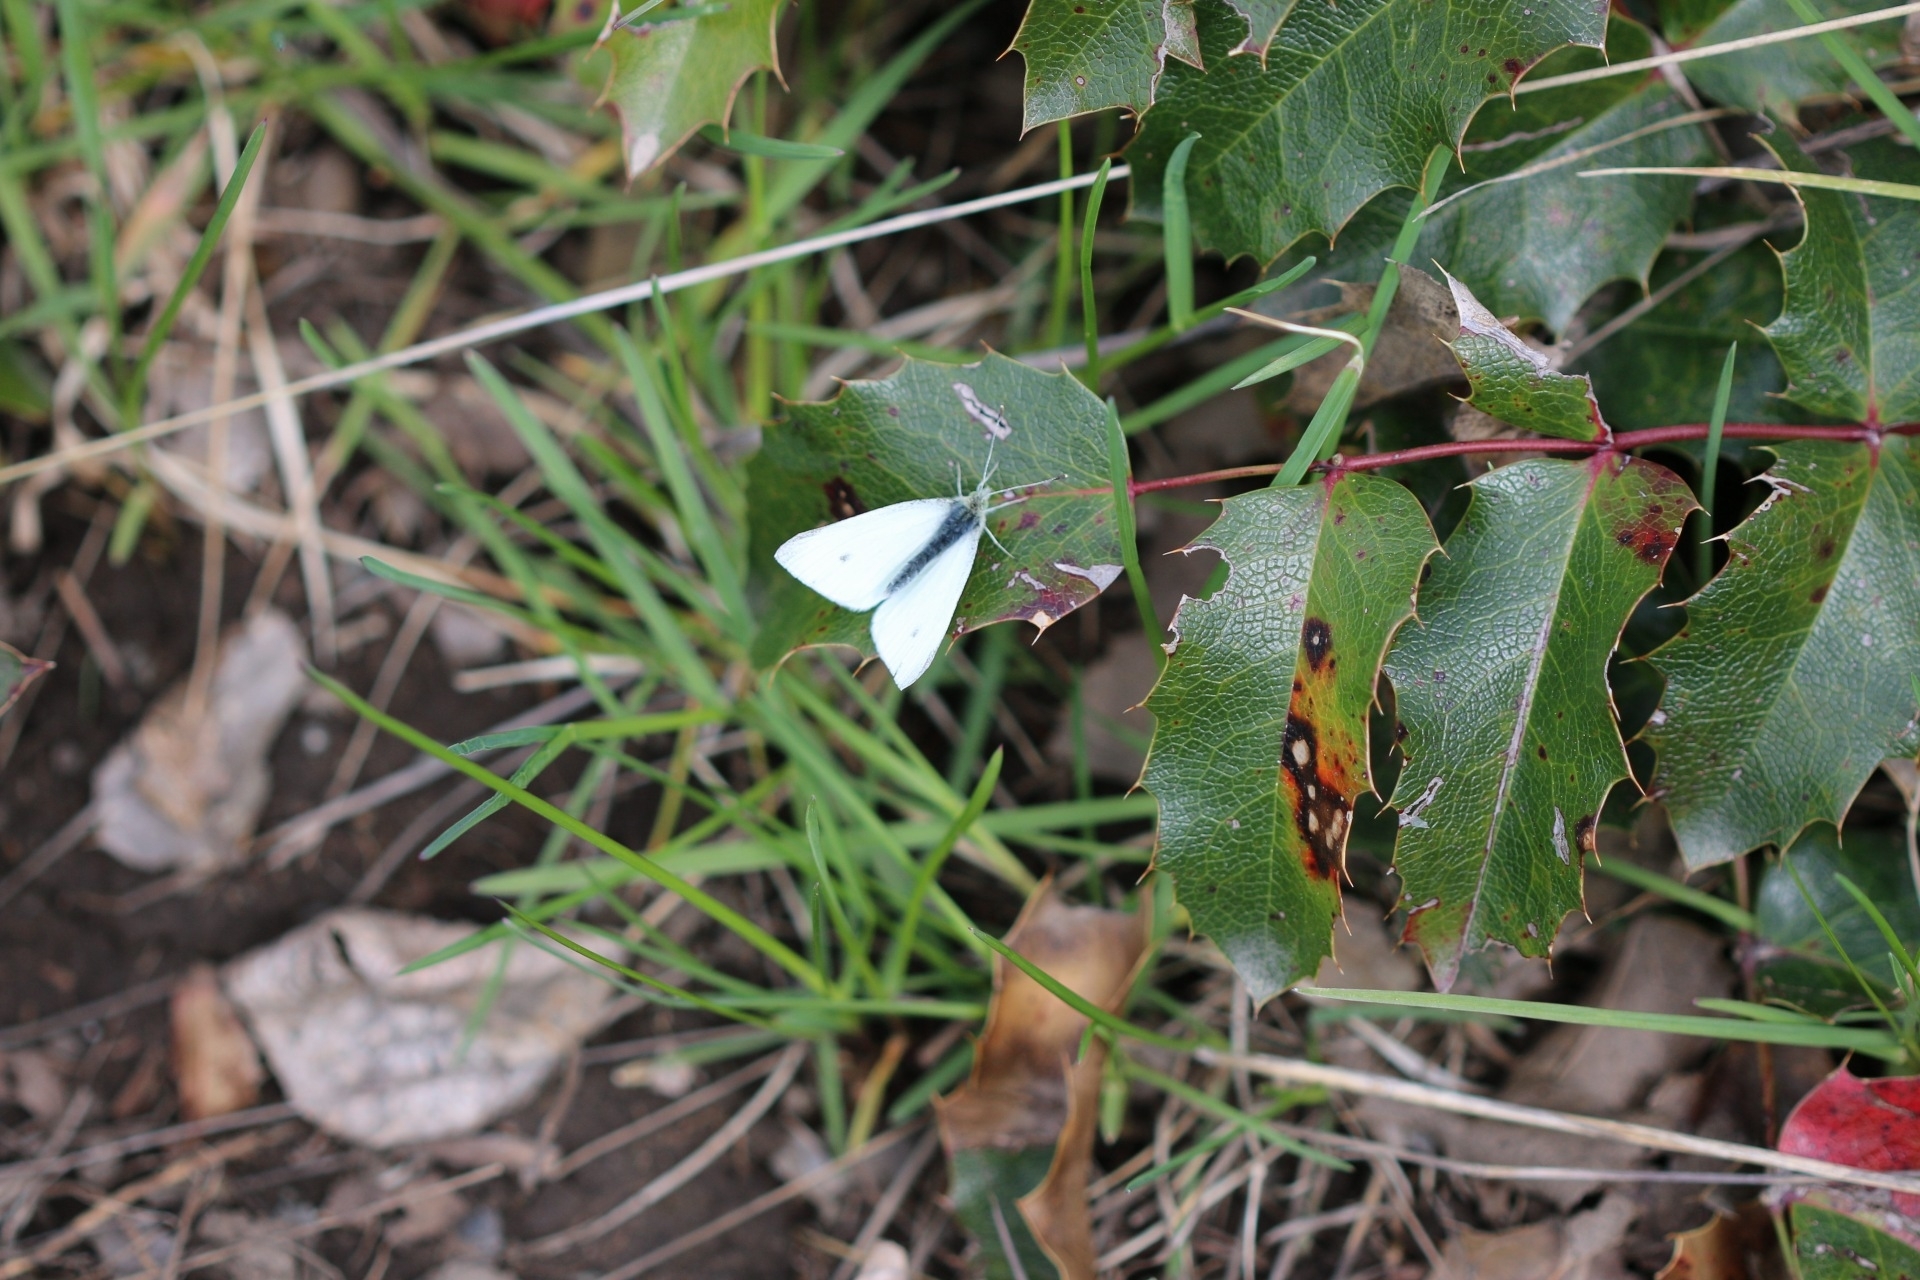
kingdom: Animalia
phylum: Arthropoda
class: Insecta
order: Lepidoptera
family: Pieridae
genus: Pieris
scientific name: Pieris rapae
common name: Small white
